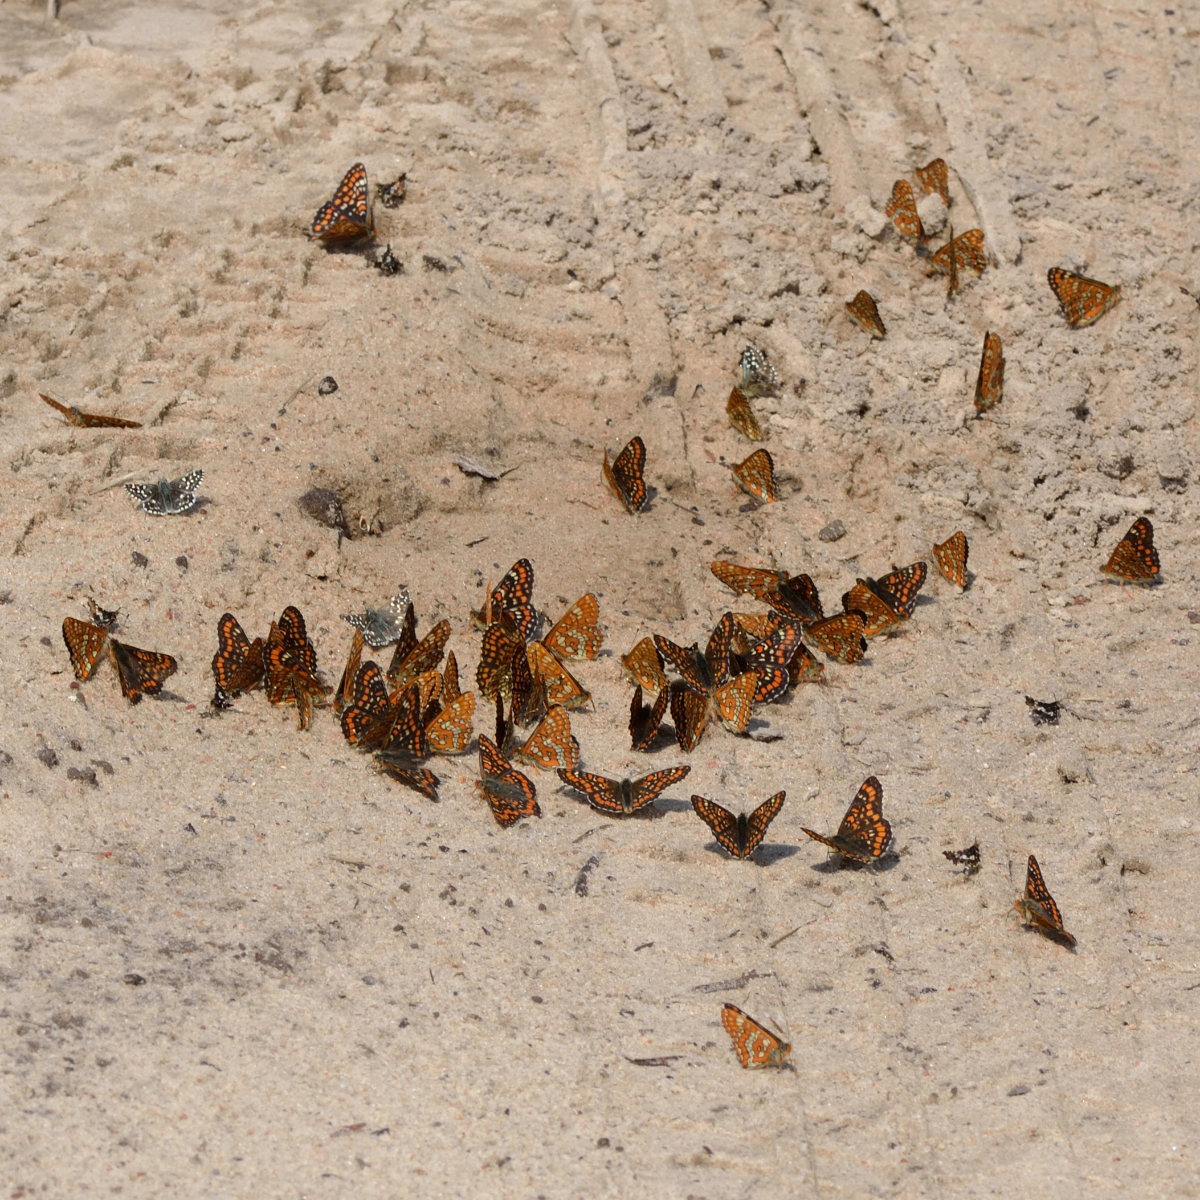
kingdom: Animalia
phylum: Arthropoda
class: Insecta
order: Lepidoptera
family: Nymphalidae
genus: Euphydryas
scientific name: Euphydryas maturna
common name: Scarce fritillary
